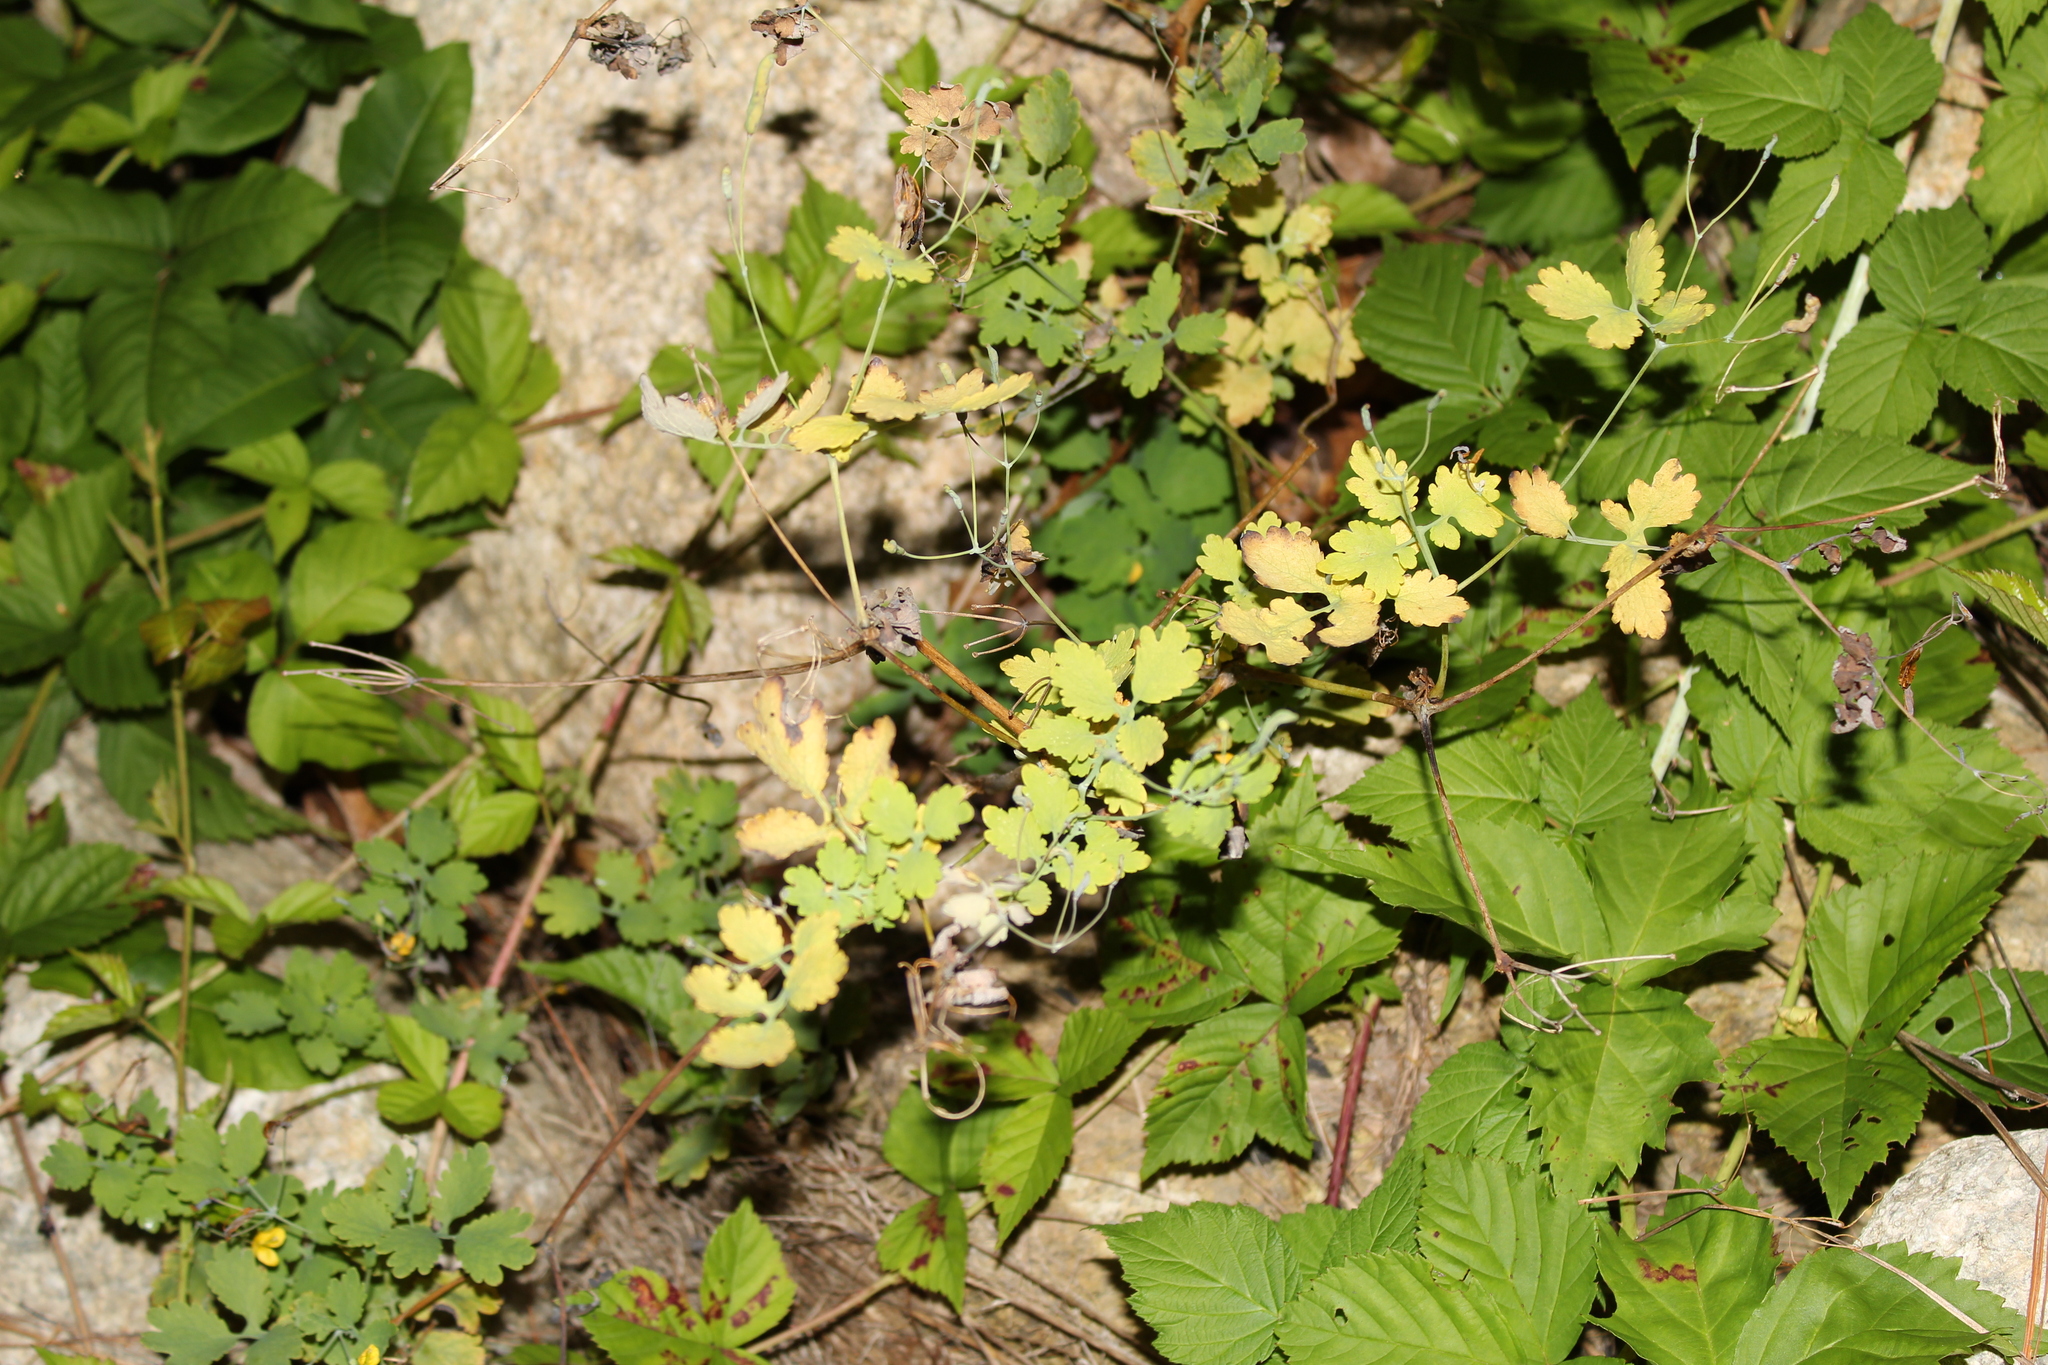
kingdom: Plantae
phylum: Tracheophyta
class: Magnoliopsida
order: Ranunculales
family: Papaveraceae
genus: Chelidonium
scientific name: Chelidonium majus
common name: Greater celandine
